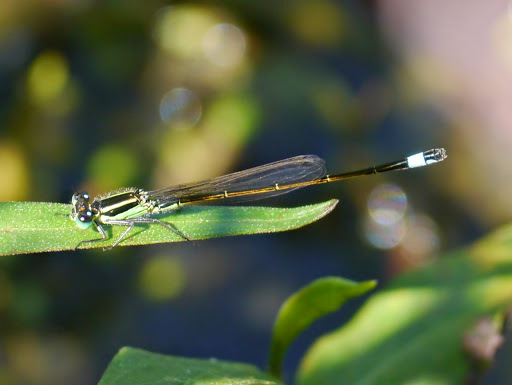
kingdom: Animalia
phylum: Arthropoda
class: Insecta
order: Odonata
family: Coenagrionidae
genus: Ischnura
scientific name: Ischnura ramburii
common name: Rambur's forktail
